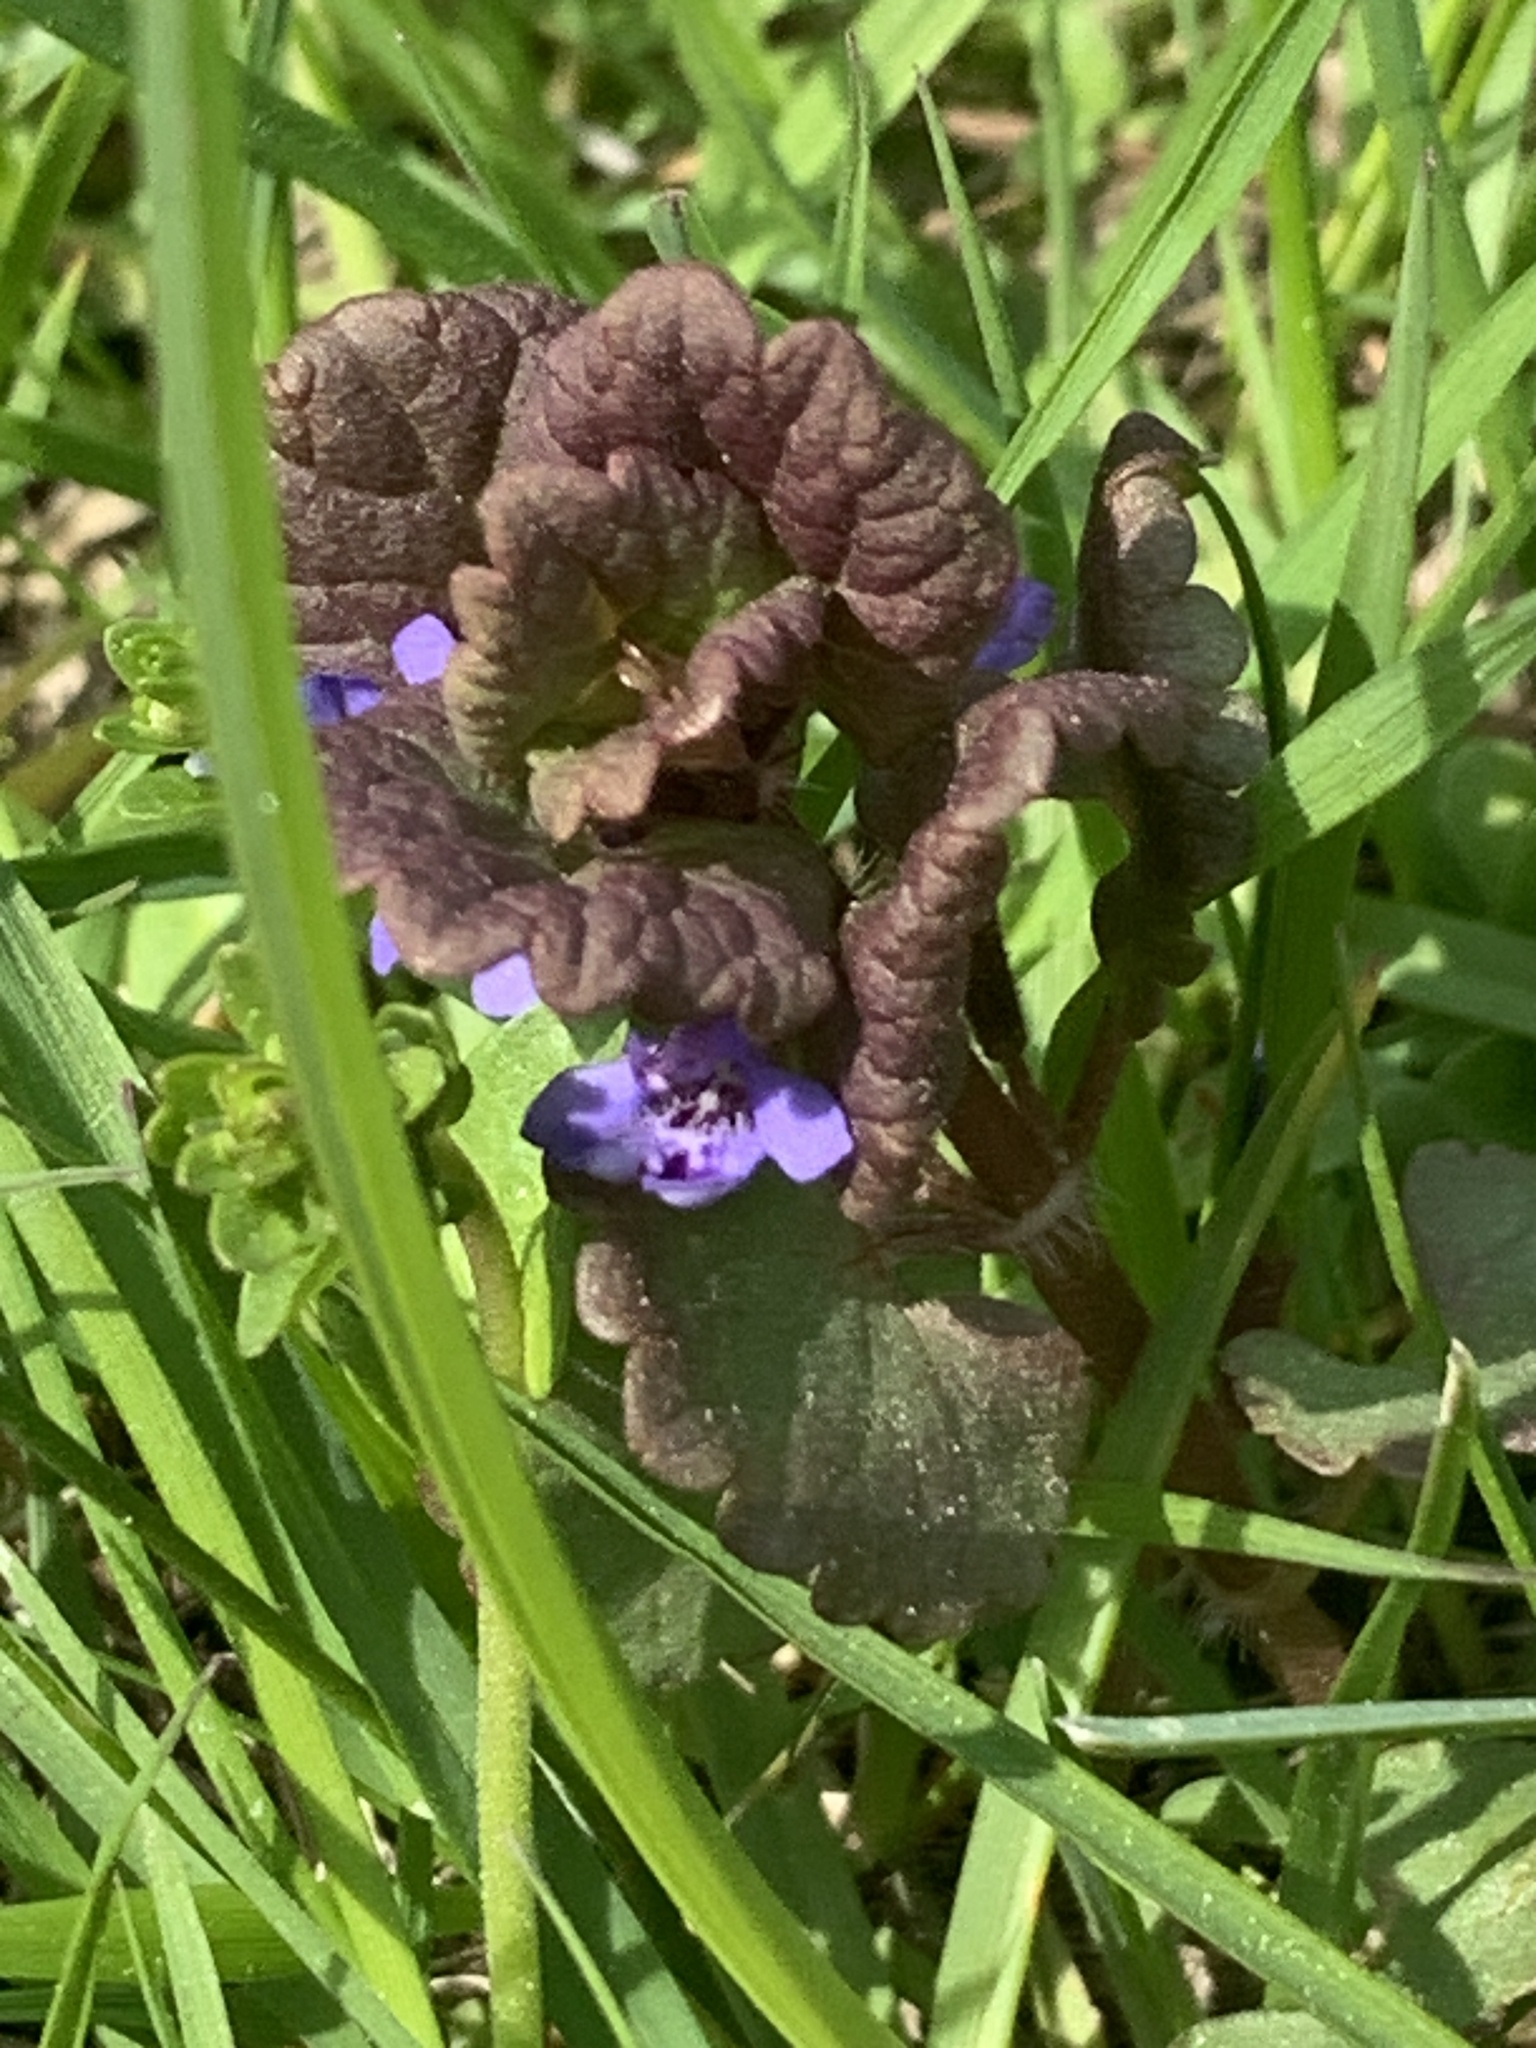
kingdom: Plantae
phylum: Tracheophyta
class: Magnoliopsida
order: Lamiales
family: Lamiaceae
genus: Glechoma
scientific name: Glechoma hederacea
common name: Ground ivy
